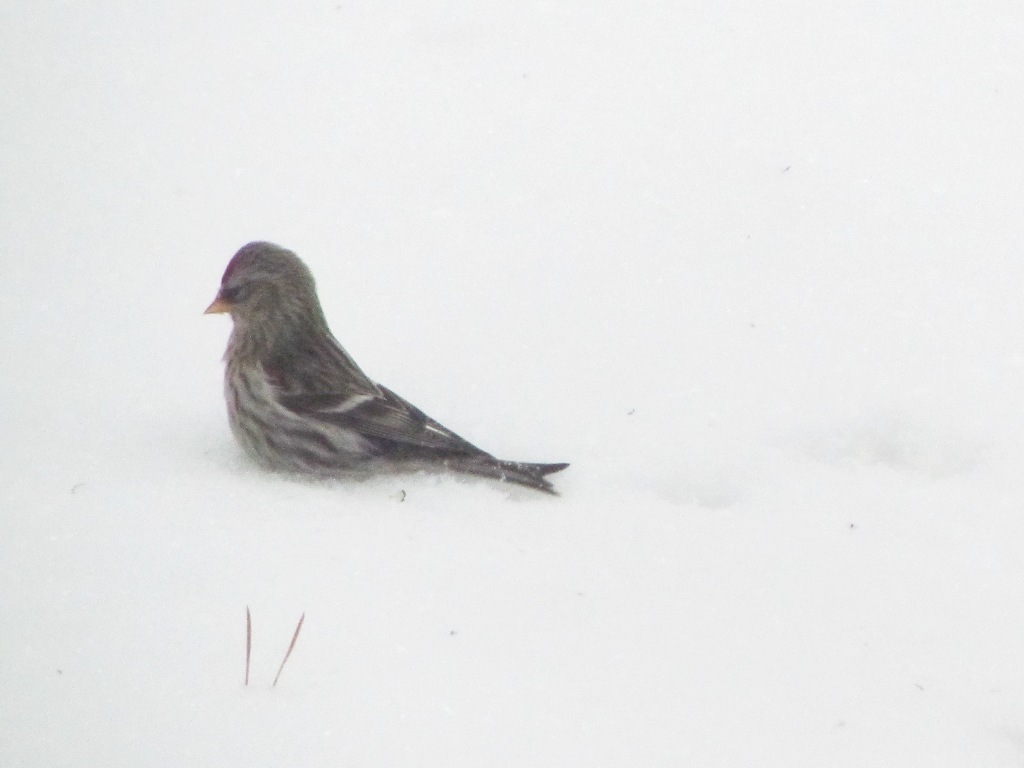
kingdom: Animalia
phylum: Chordata
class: Aves
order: Passeriformes
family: Fringillidae
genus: Acanthis
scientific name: Acanthis flammea
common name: Common redpoll
